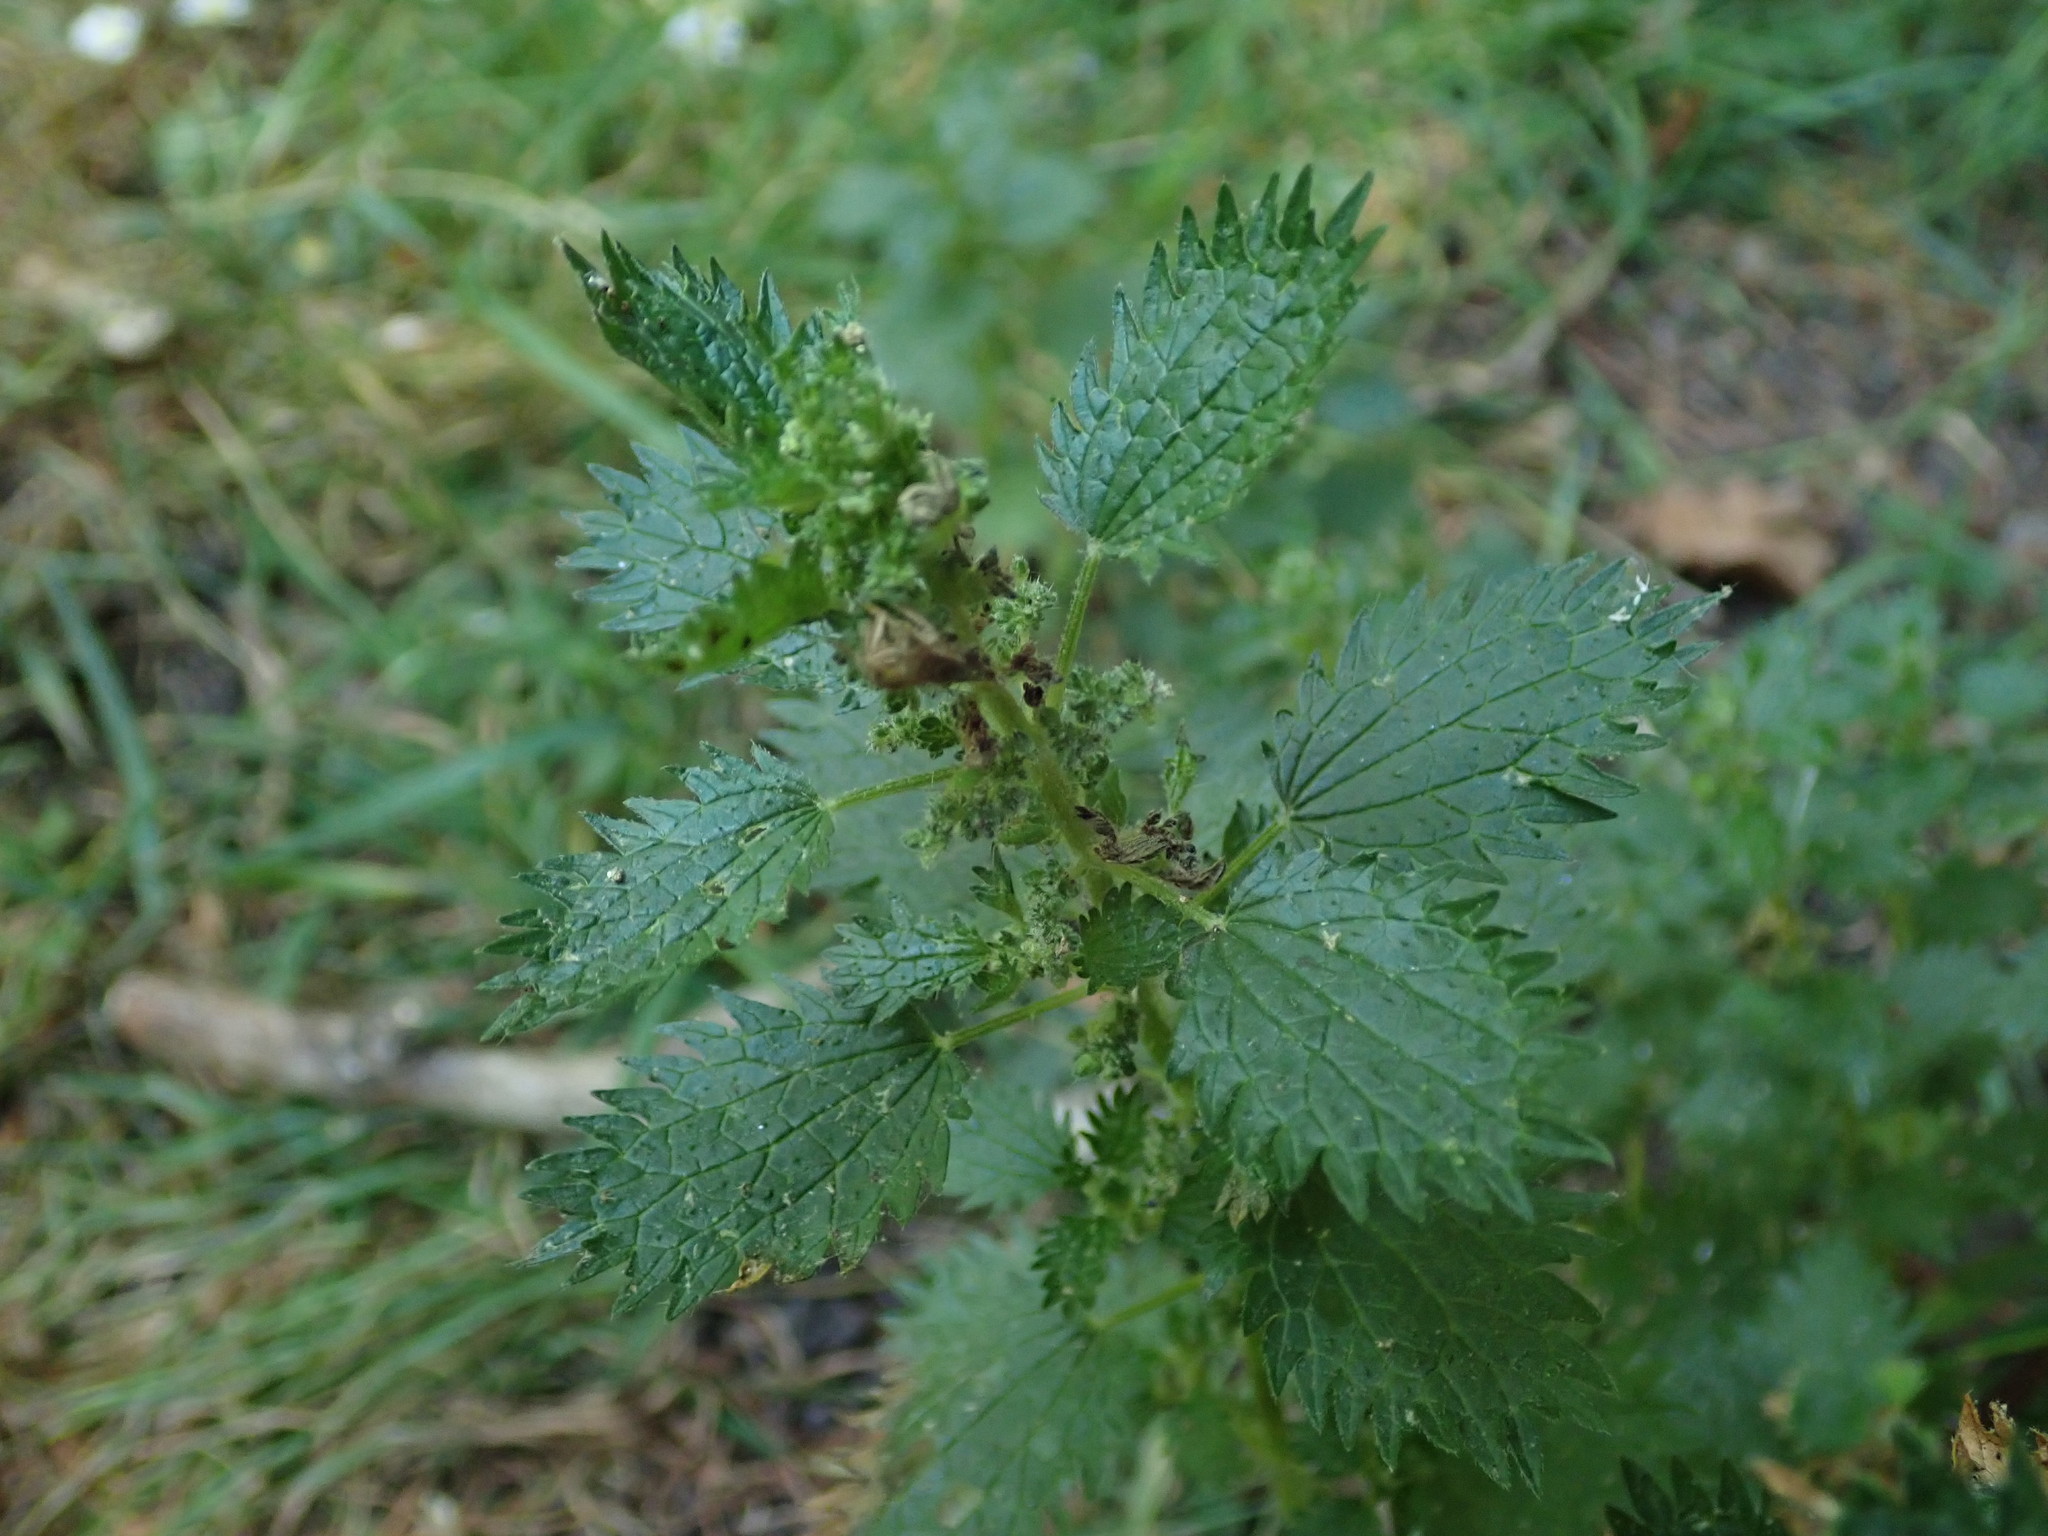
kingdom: Plantae
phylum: Tracheophyta
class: Magnoliopsida
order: Rosales
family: Urticaceae
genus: Urtica
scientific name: Urtica urens
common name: Dwarf nettle
